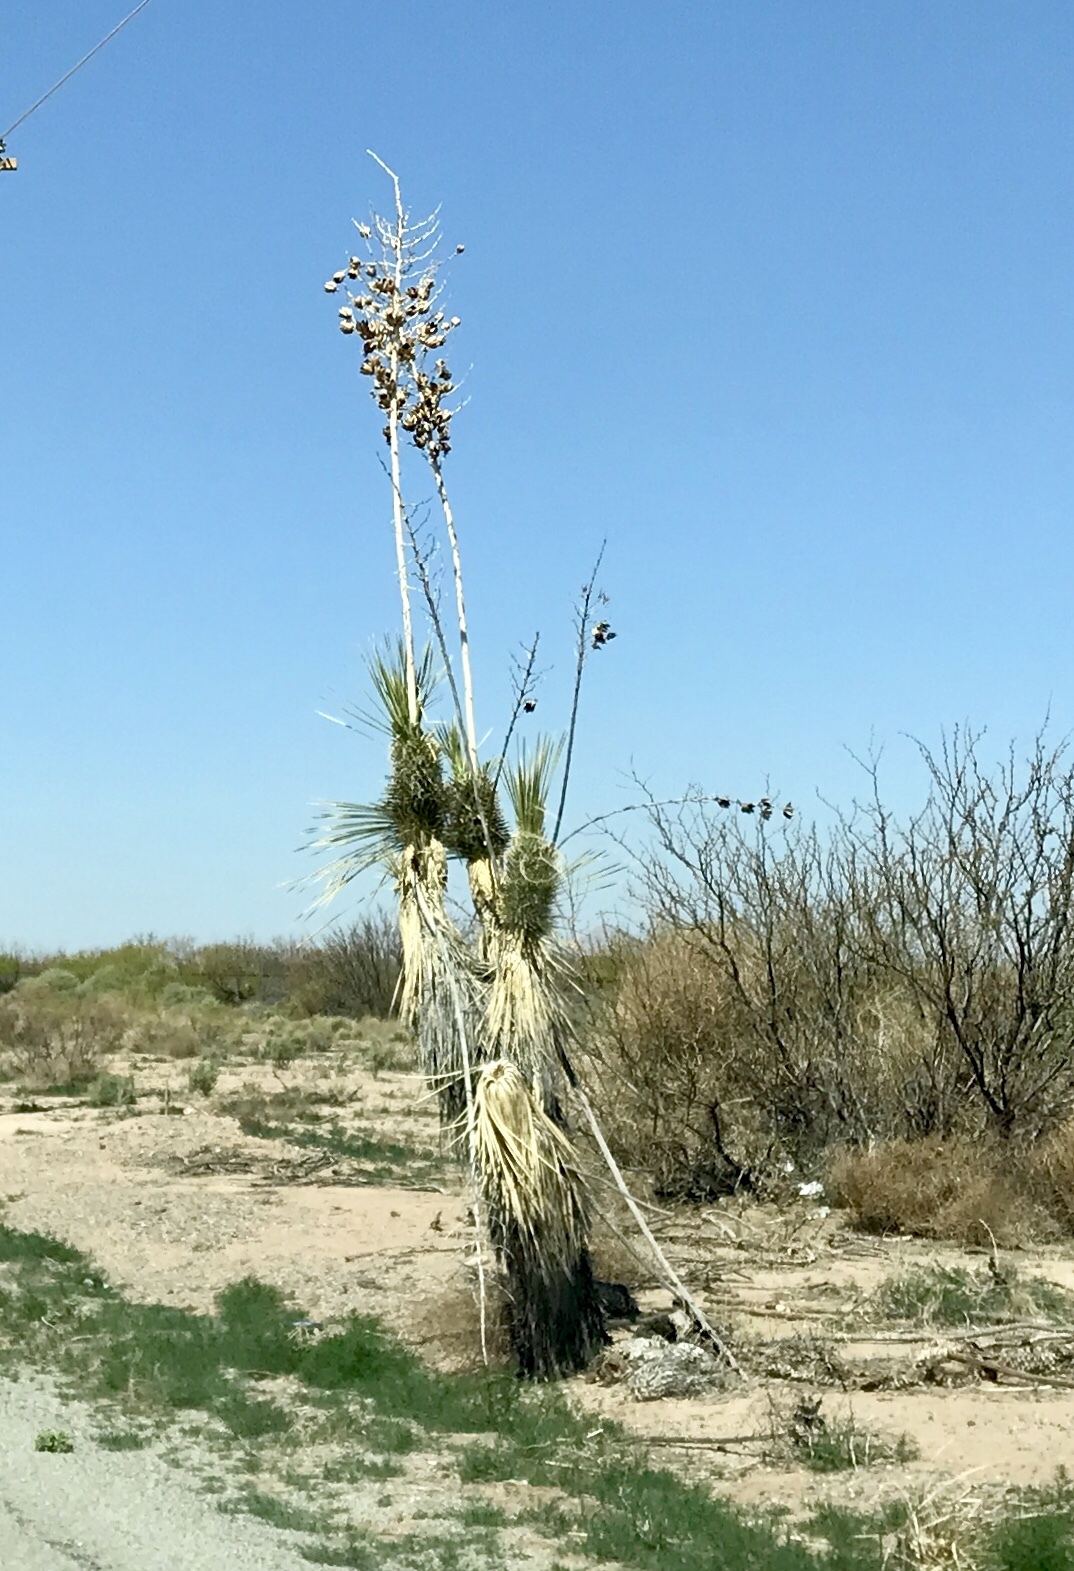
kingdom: Plantae
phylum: Tracheophyta
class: Liliopsida
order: Asparagales
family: Asparagaceae
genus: Yucca
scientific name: Yucca elata
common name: Palmella
